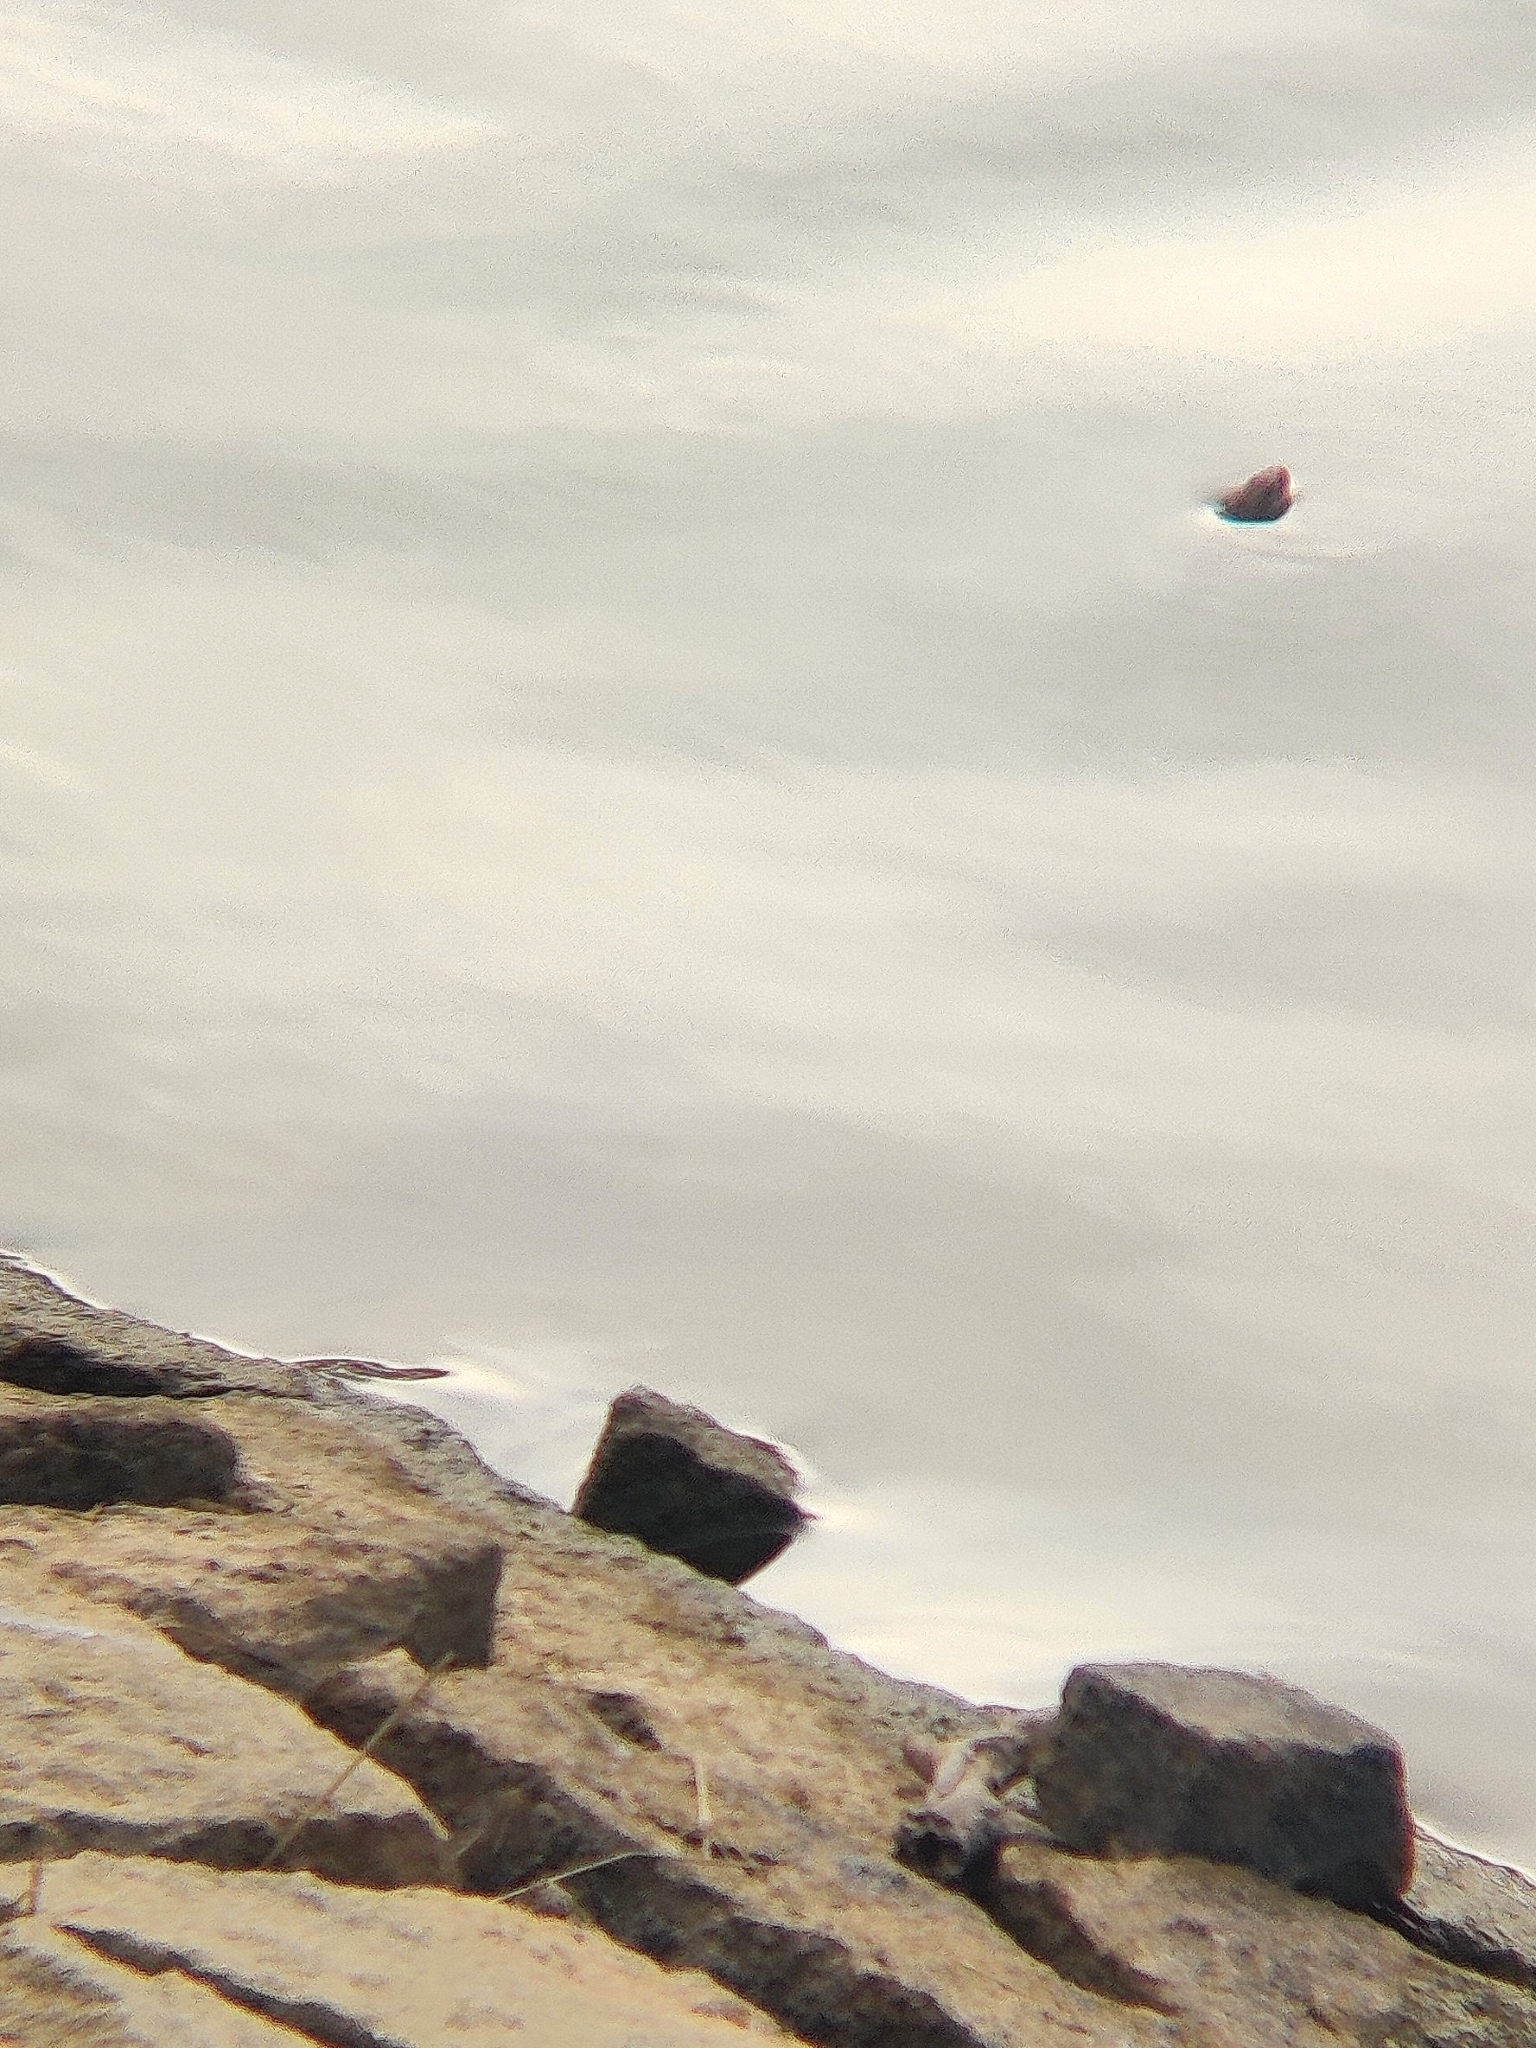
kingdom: Animalia
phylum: Chordata
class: Squamata
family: Colubridae
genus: Fowlea
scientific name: Fowlea piscator
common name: Asiatic water snake
